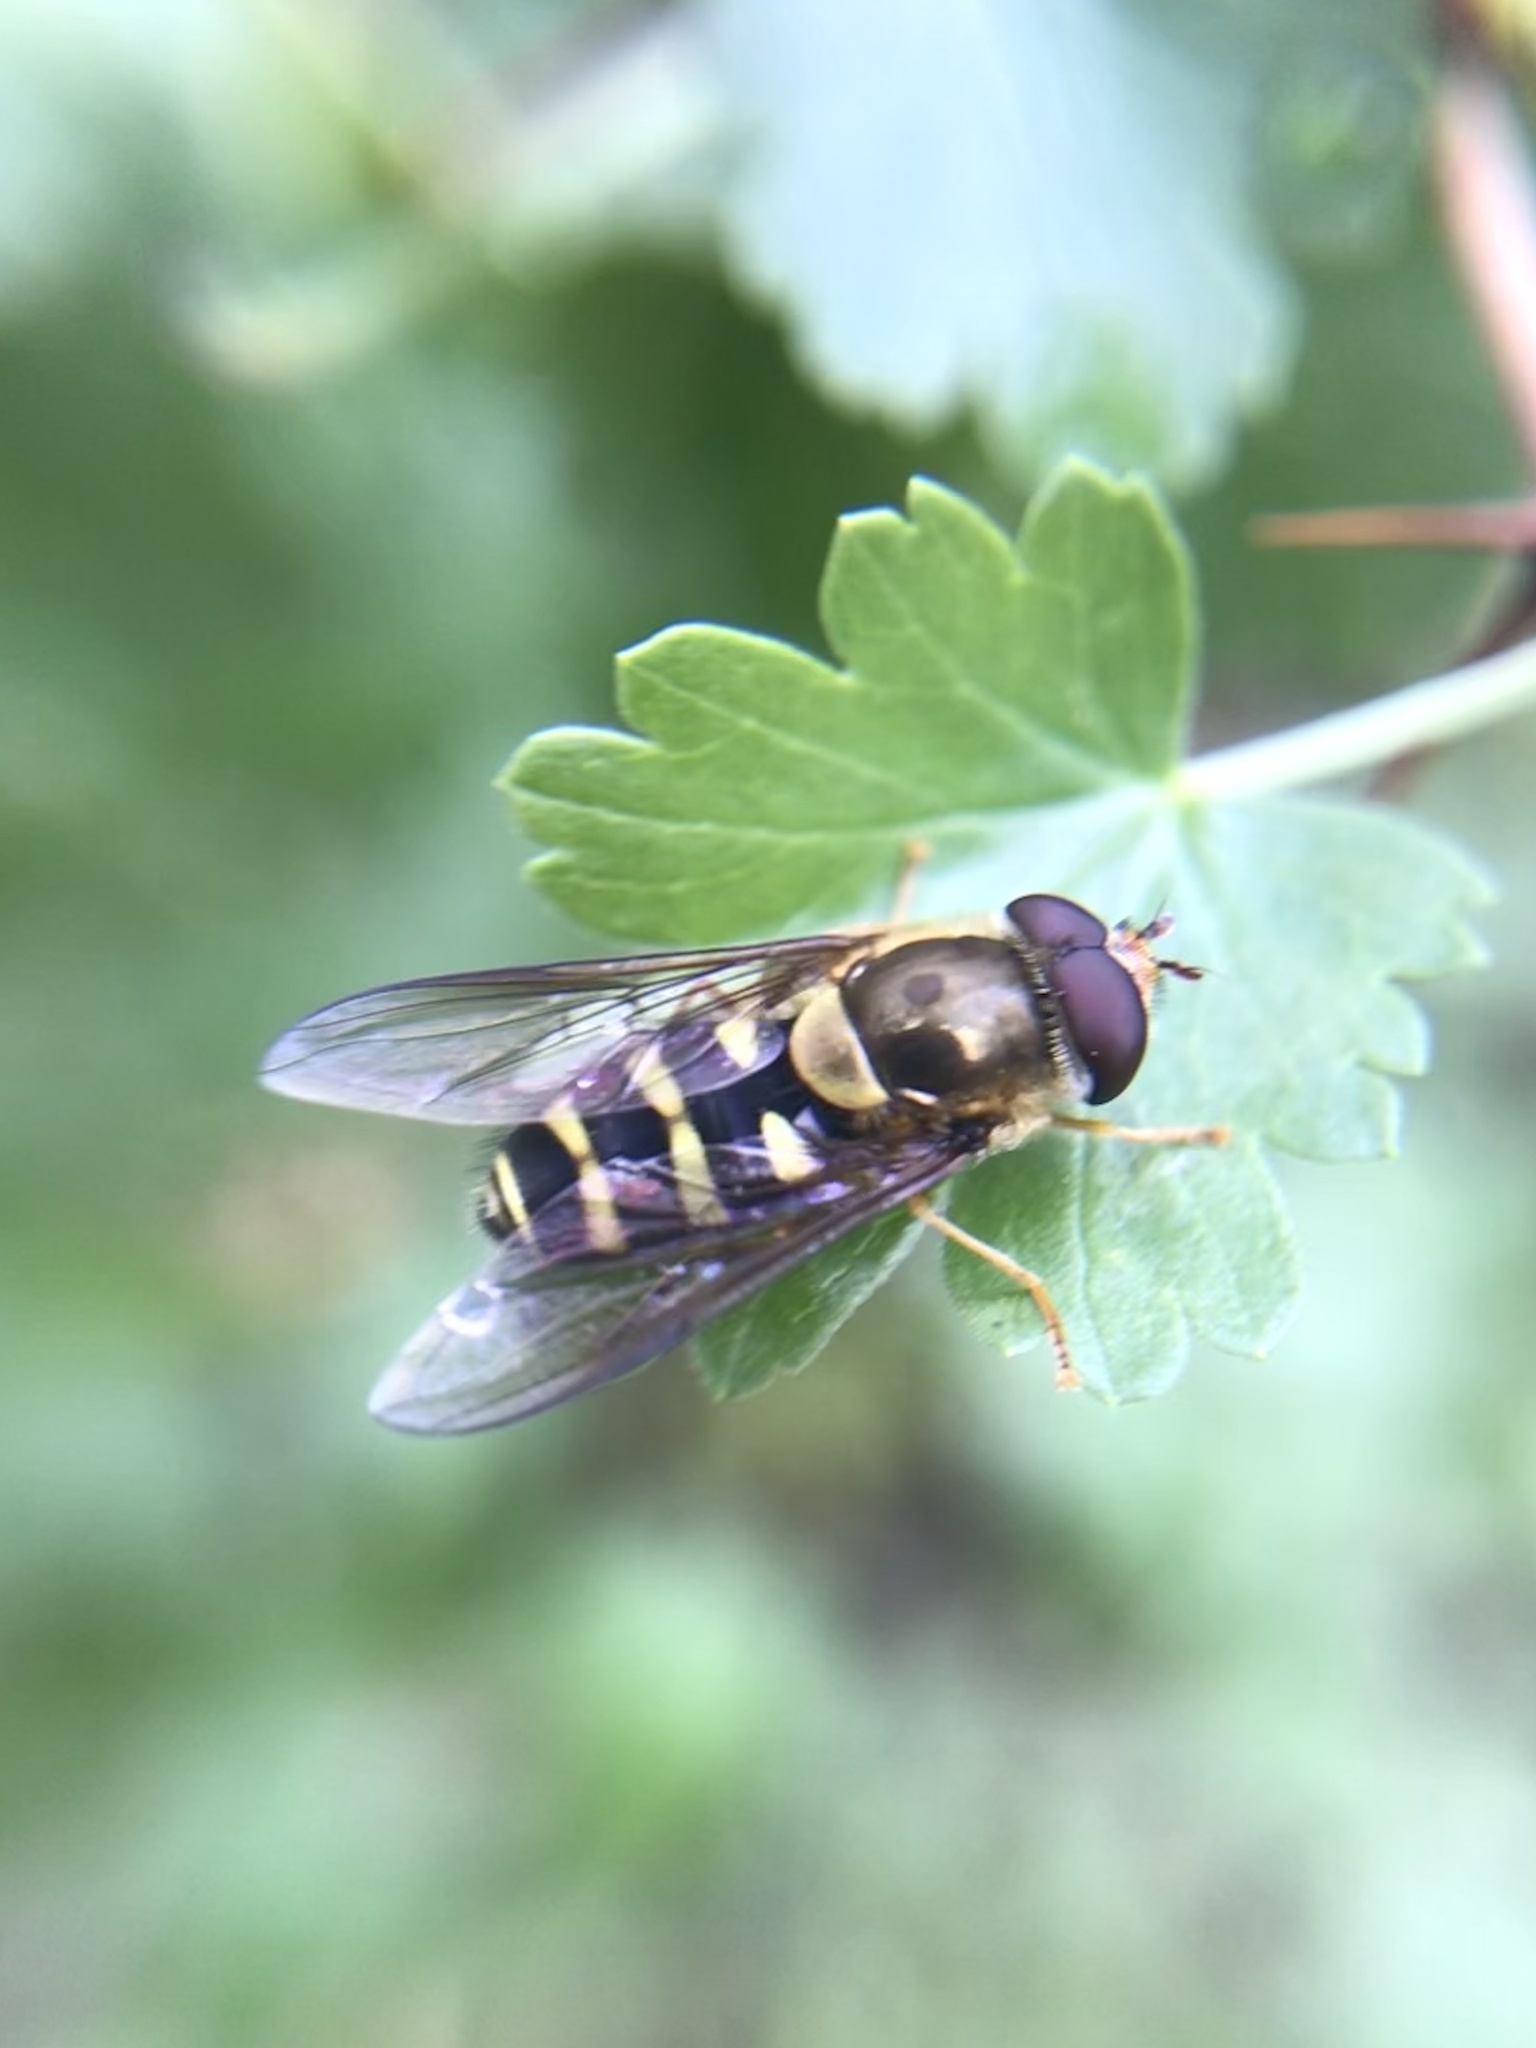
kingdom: Animalia
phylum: Arthropoda
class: Insecta
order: Diptera
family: Syrphidae
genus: Syrphus
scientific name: Syrphus opinator
